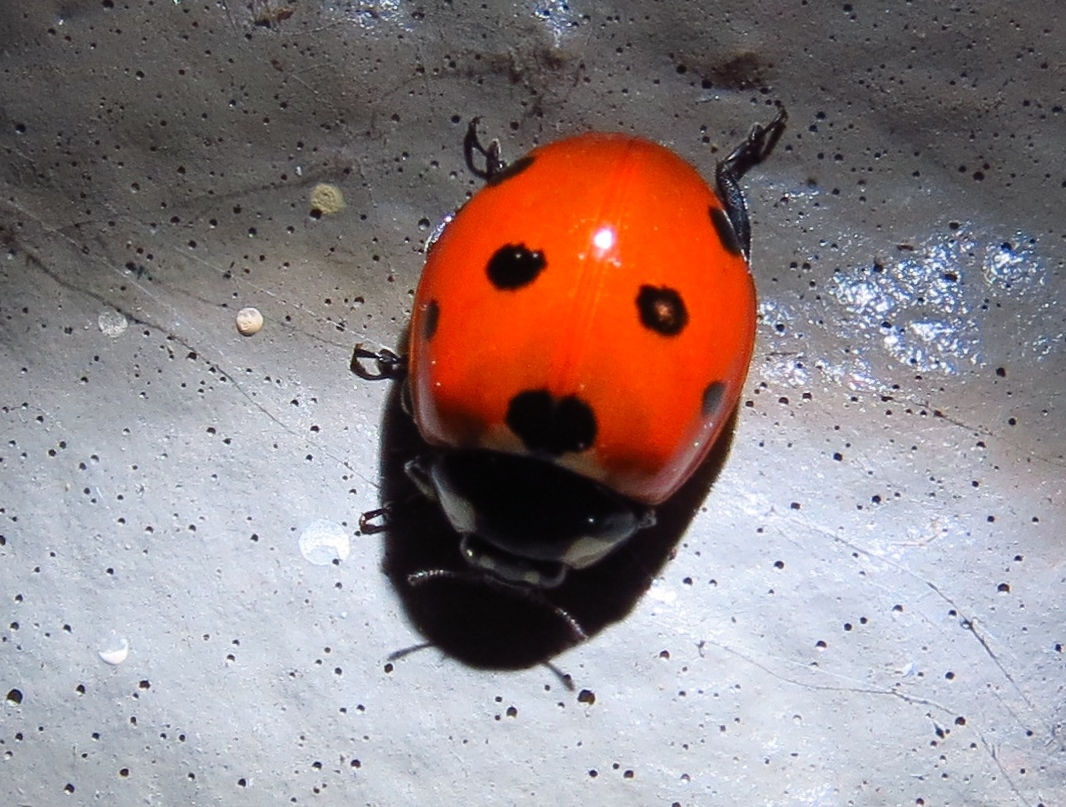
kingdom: Animalia
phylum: Arthropoda
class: Insecta
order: Coleoptera
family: Coccinellidae
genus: Coccinella
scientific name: Coccinella septempunctata
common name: Sevenspotted lady beetle
